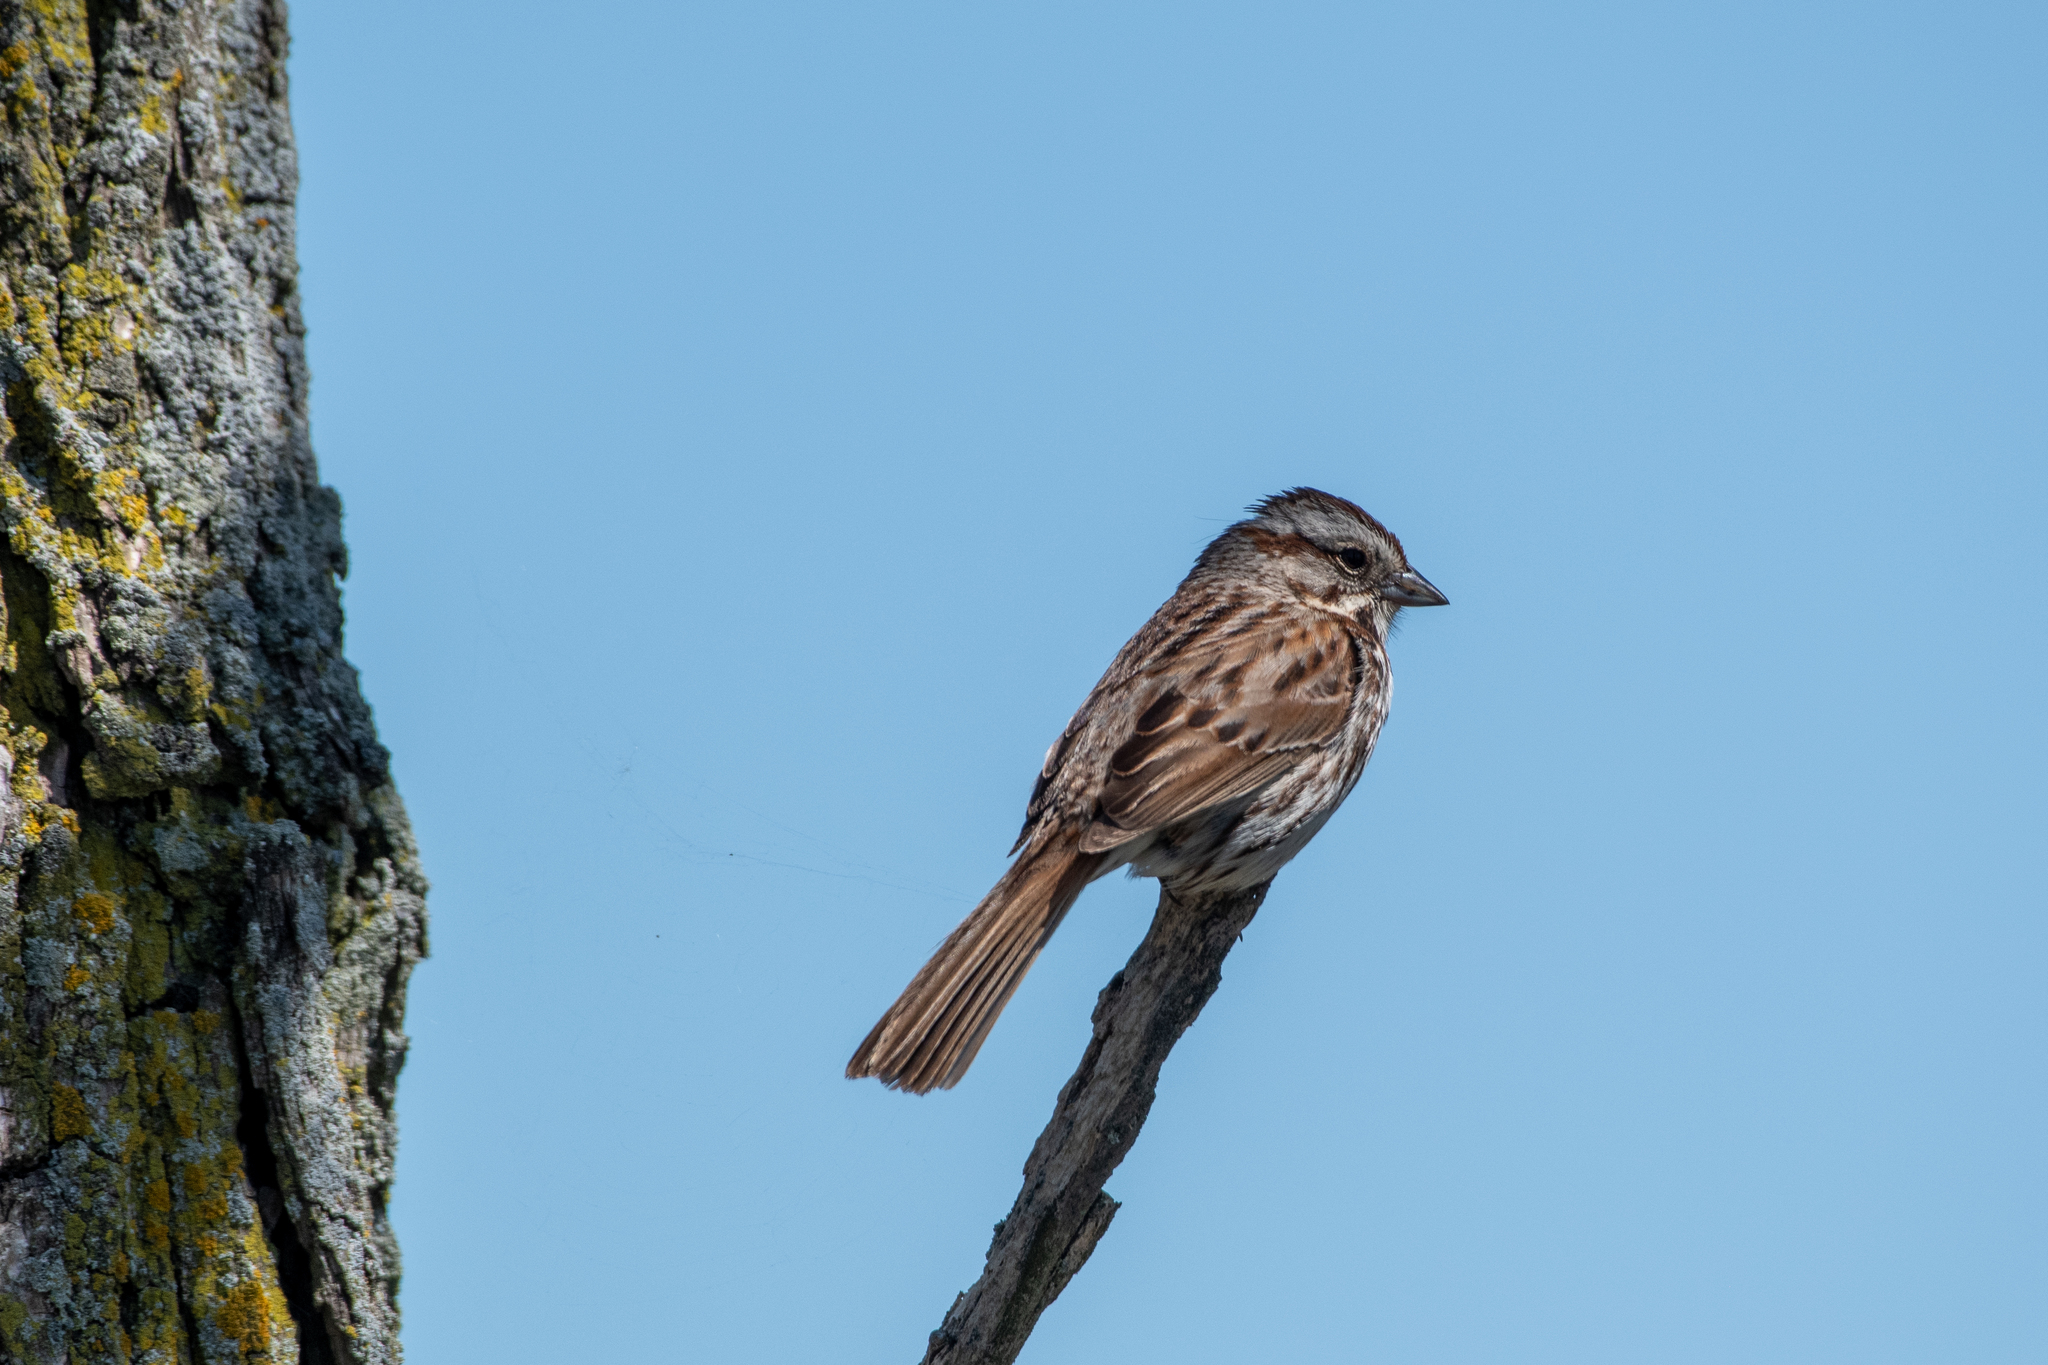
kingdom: Animalia
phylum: Chordata
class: Aves
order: Passeriformes
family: Passerellidae
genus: Melospiza
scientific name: Melospiza melodia
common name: Song sparrow
